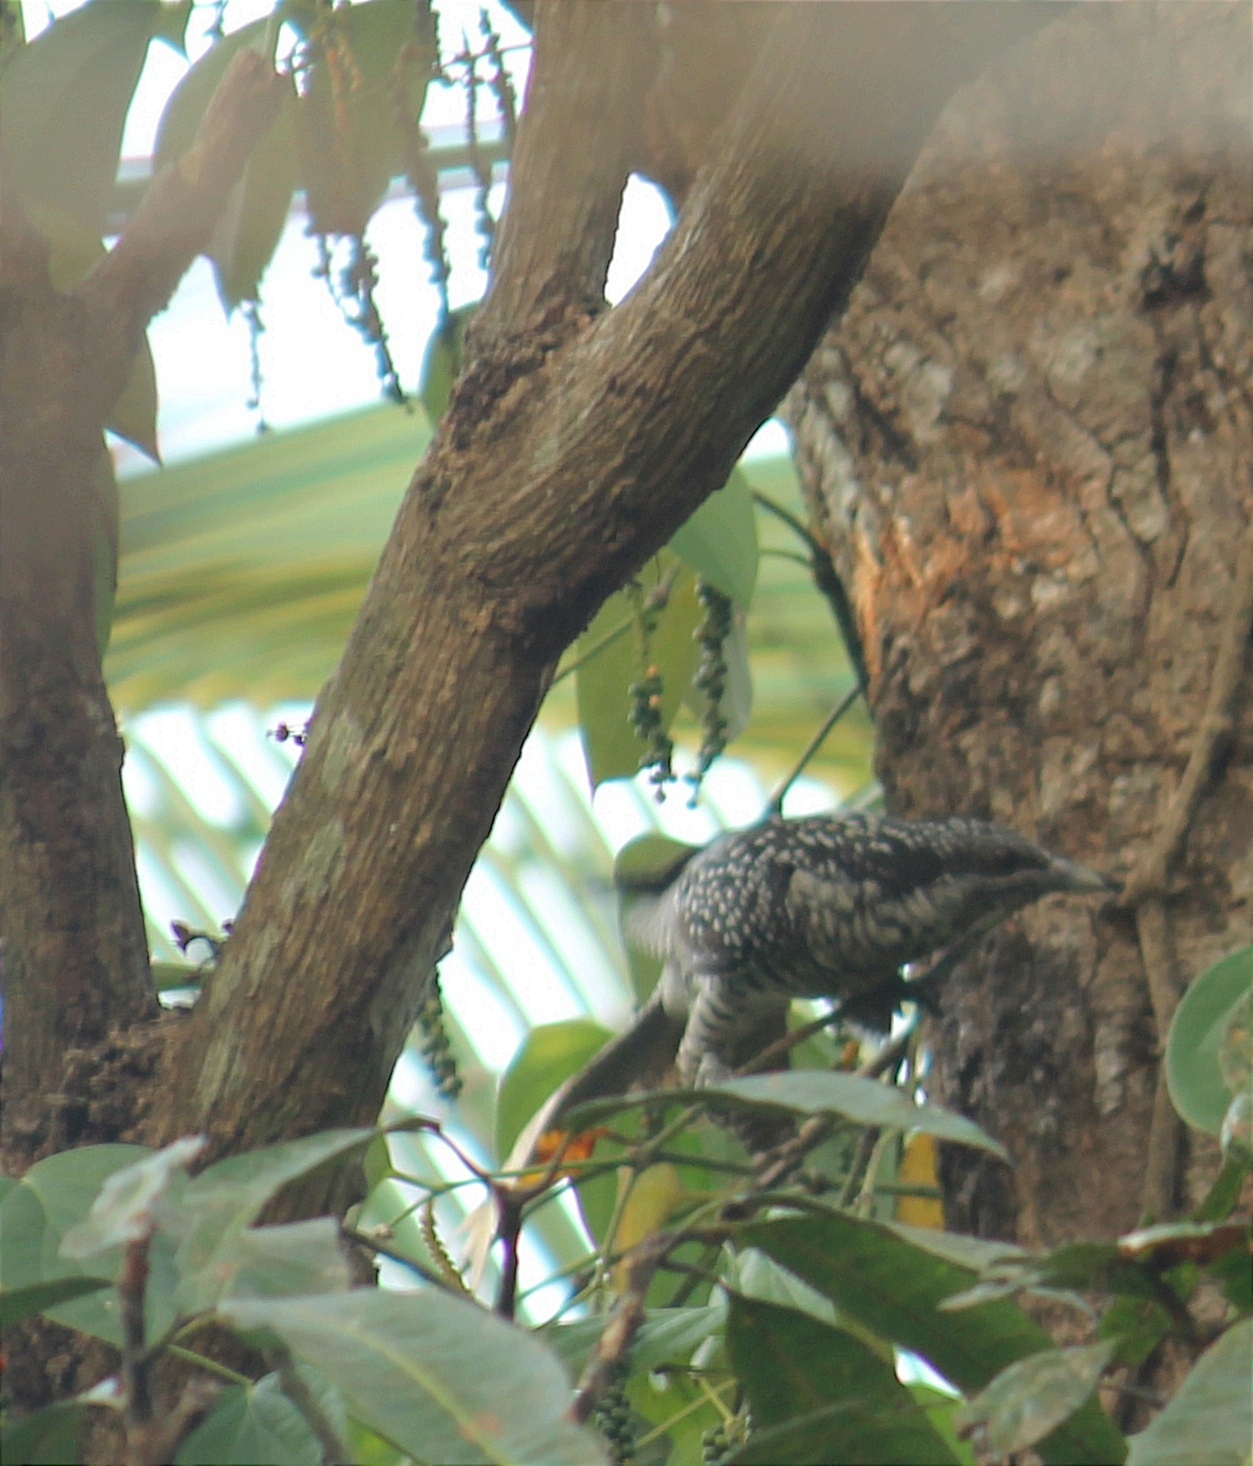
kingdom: Animalia
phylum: Chordata
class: Aves
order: Cuculiformes
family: Cuculidae
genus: Eudynamys
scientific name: Eudynamys scolopaceus
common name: Asian koel
